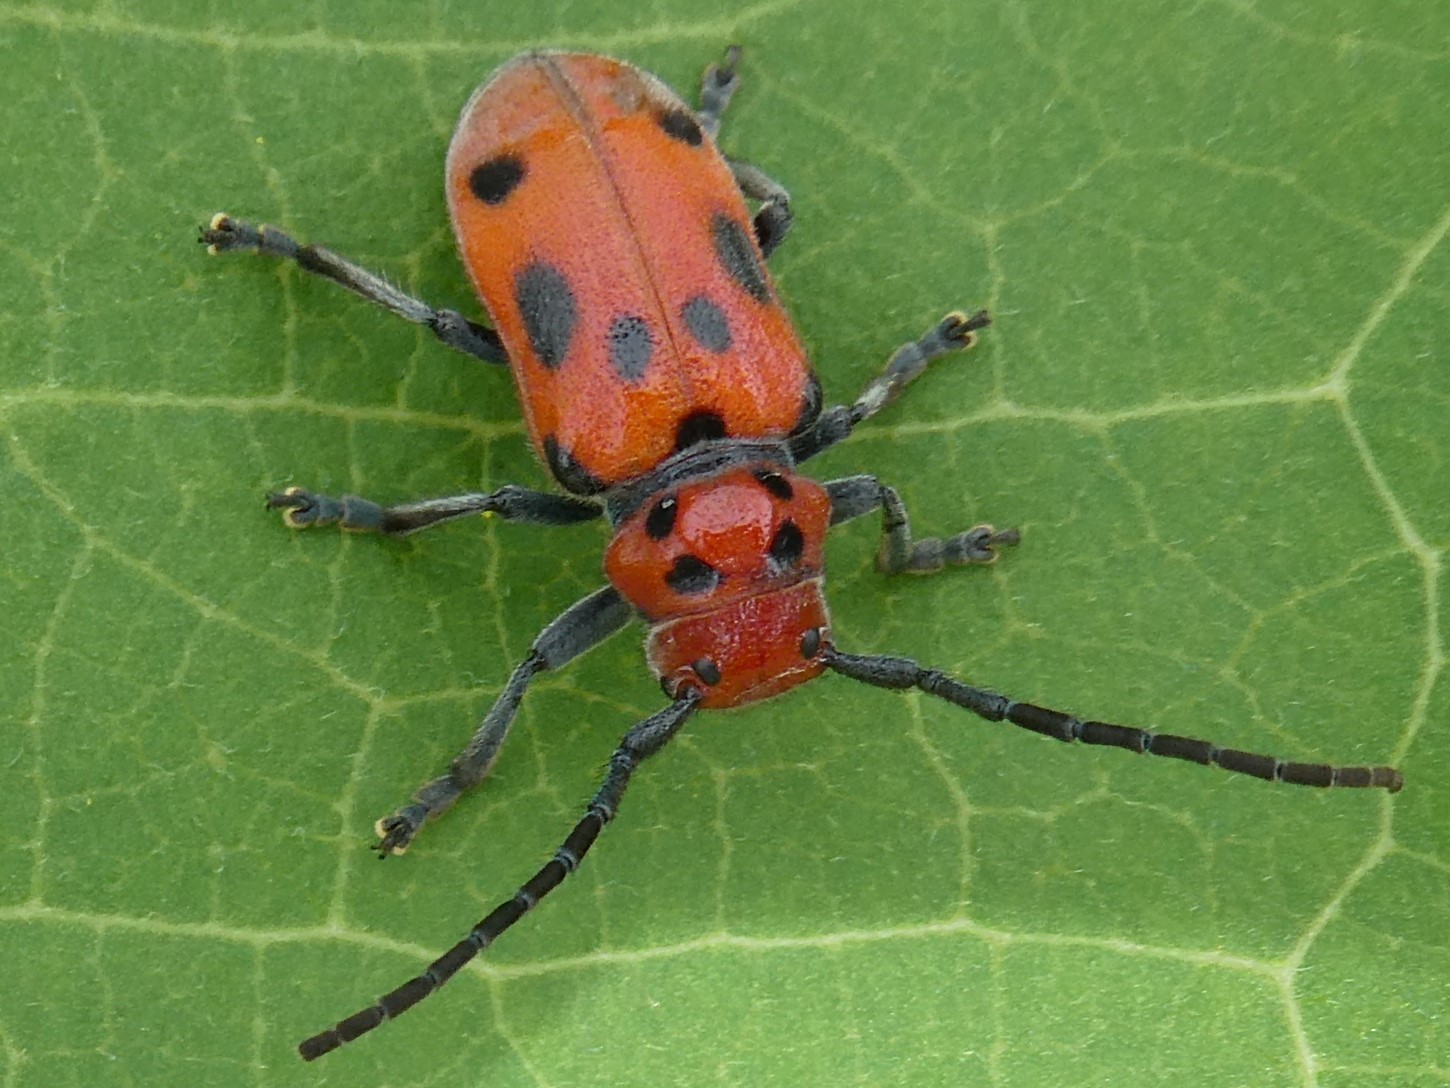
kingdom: Animalia
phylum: Arthropoda
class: Insecta
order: Coleoptera
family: Cerambycidae
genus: Tetraopes
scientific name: Tetraopes tetrophthalmus
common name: Red milkweed beetle
